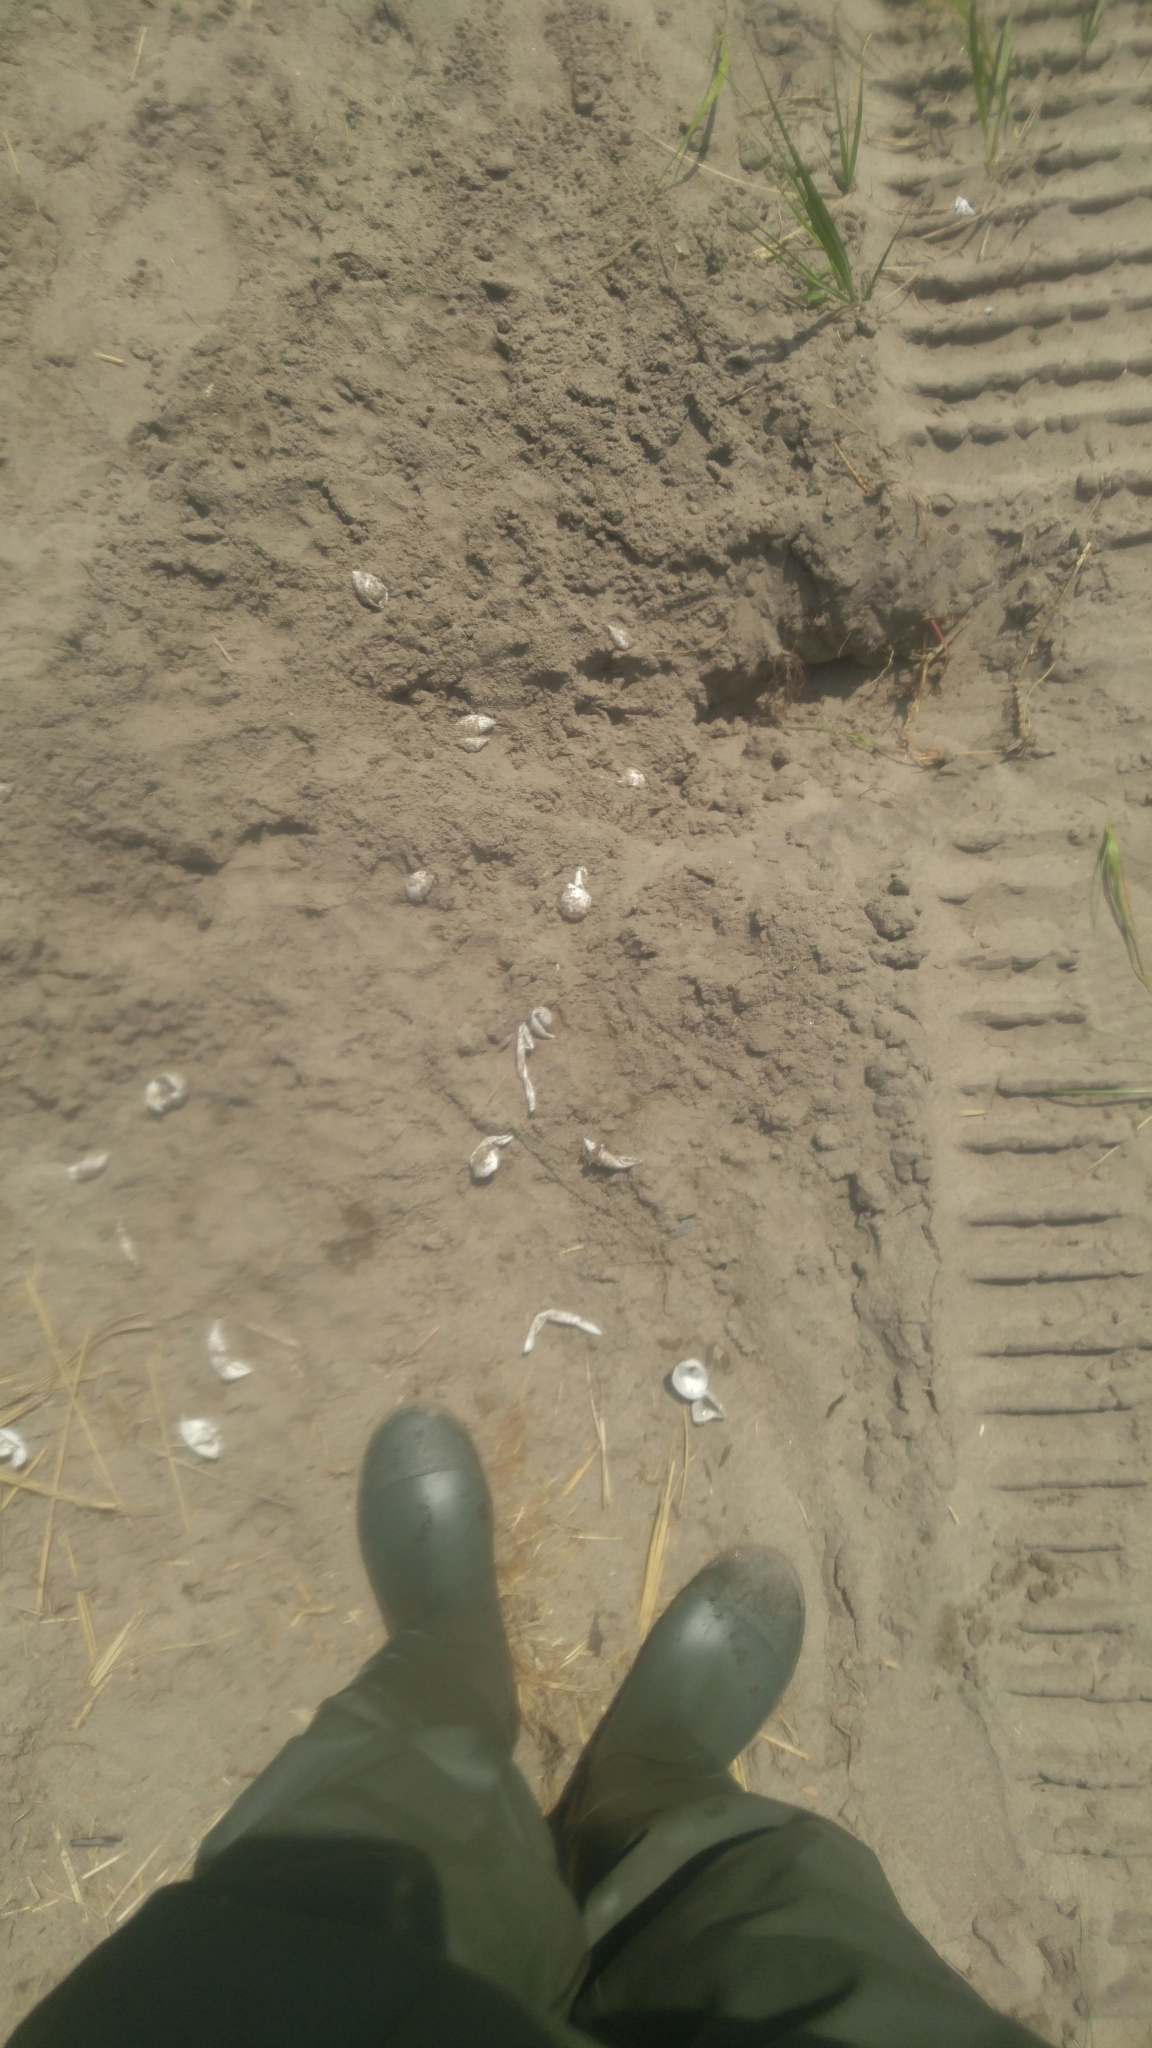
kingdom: Animalia
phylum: Chordata
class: Testudines
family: Chelydridae
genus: Chelydra
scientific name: Chelydra serpentina
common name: Common snapping turtle
